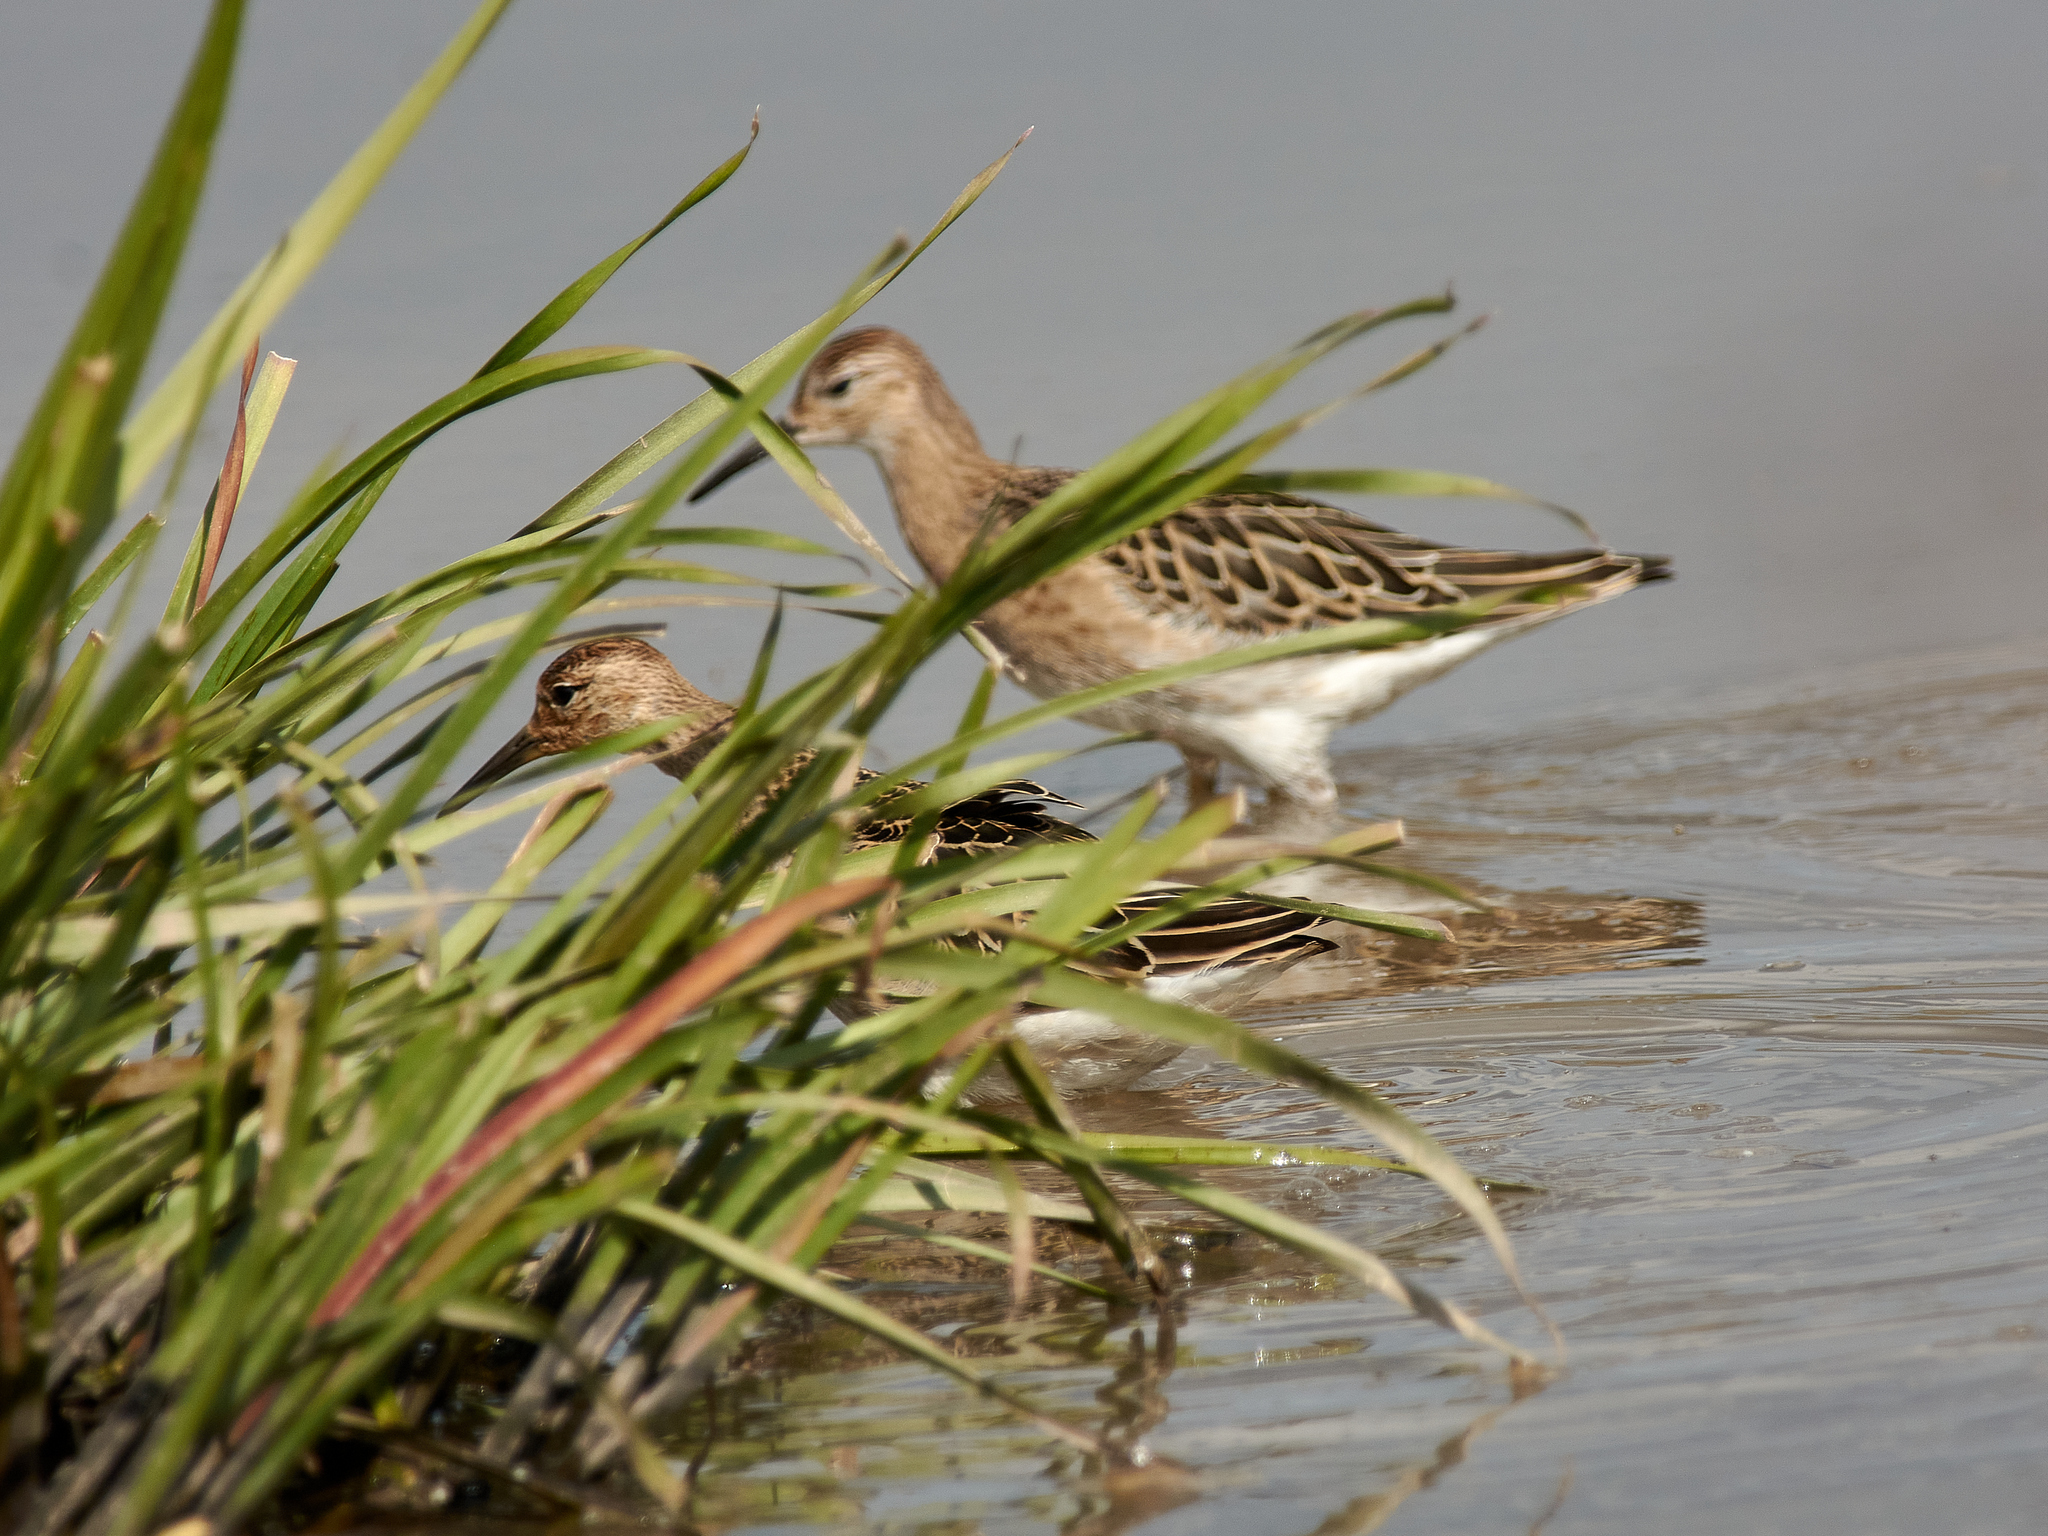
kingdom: Animalia
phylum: Chordata
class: Aves
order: Charadriiformes
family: Scolopacidae
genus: Calidris
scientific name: Calidris pugnax
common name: Ruff
